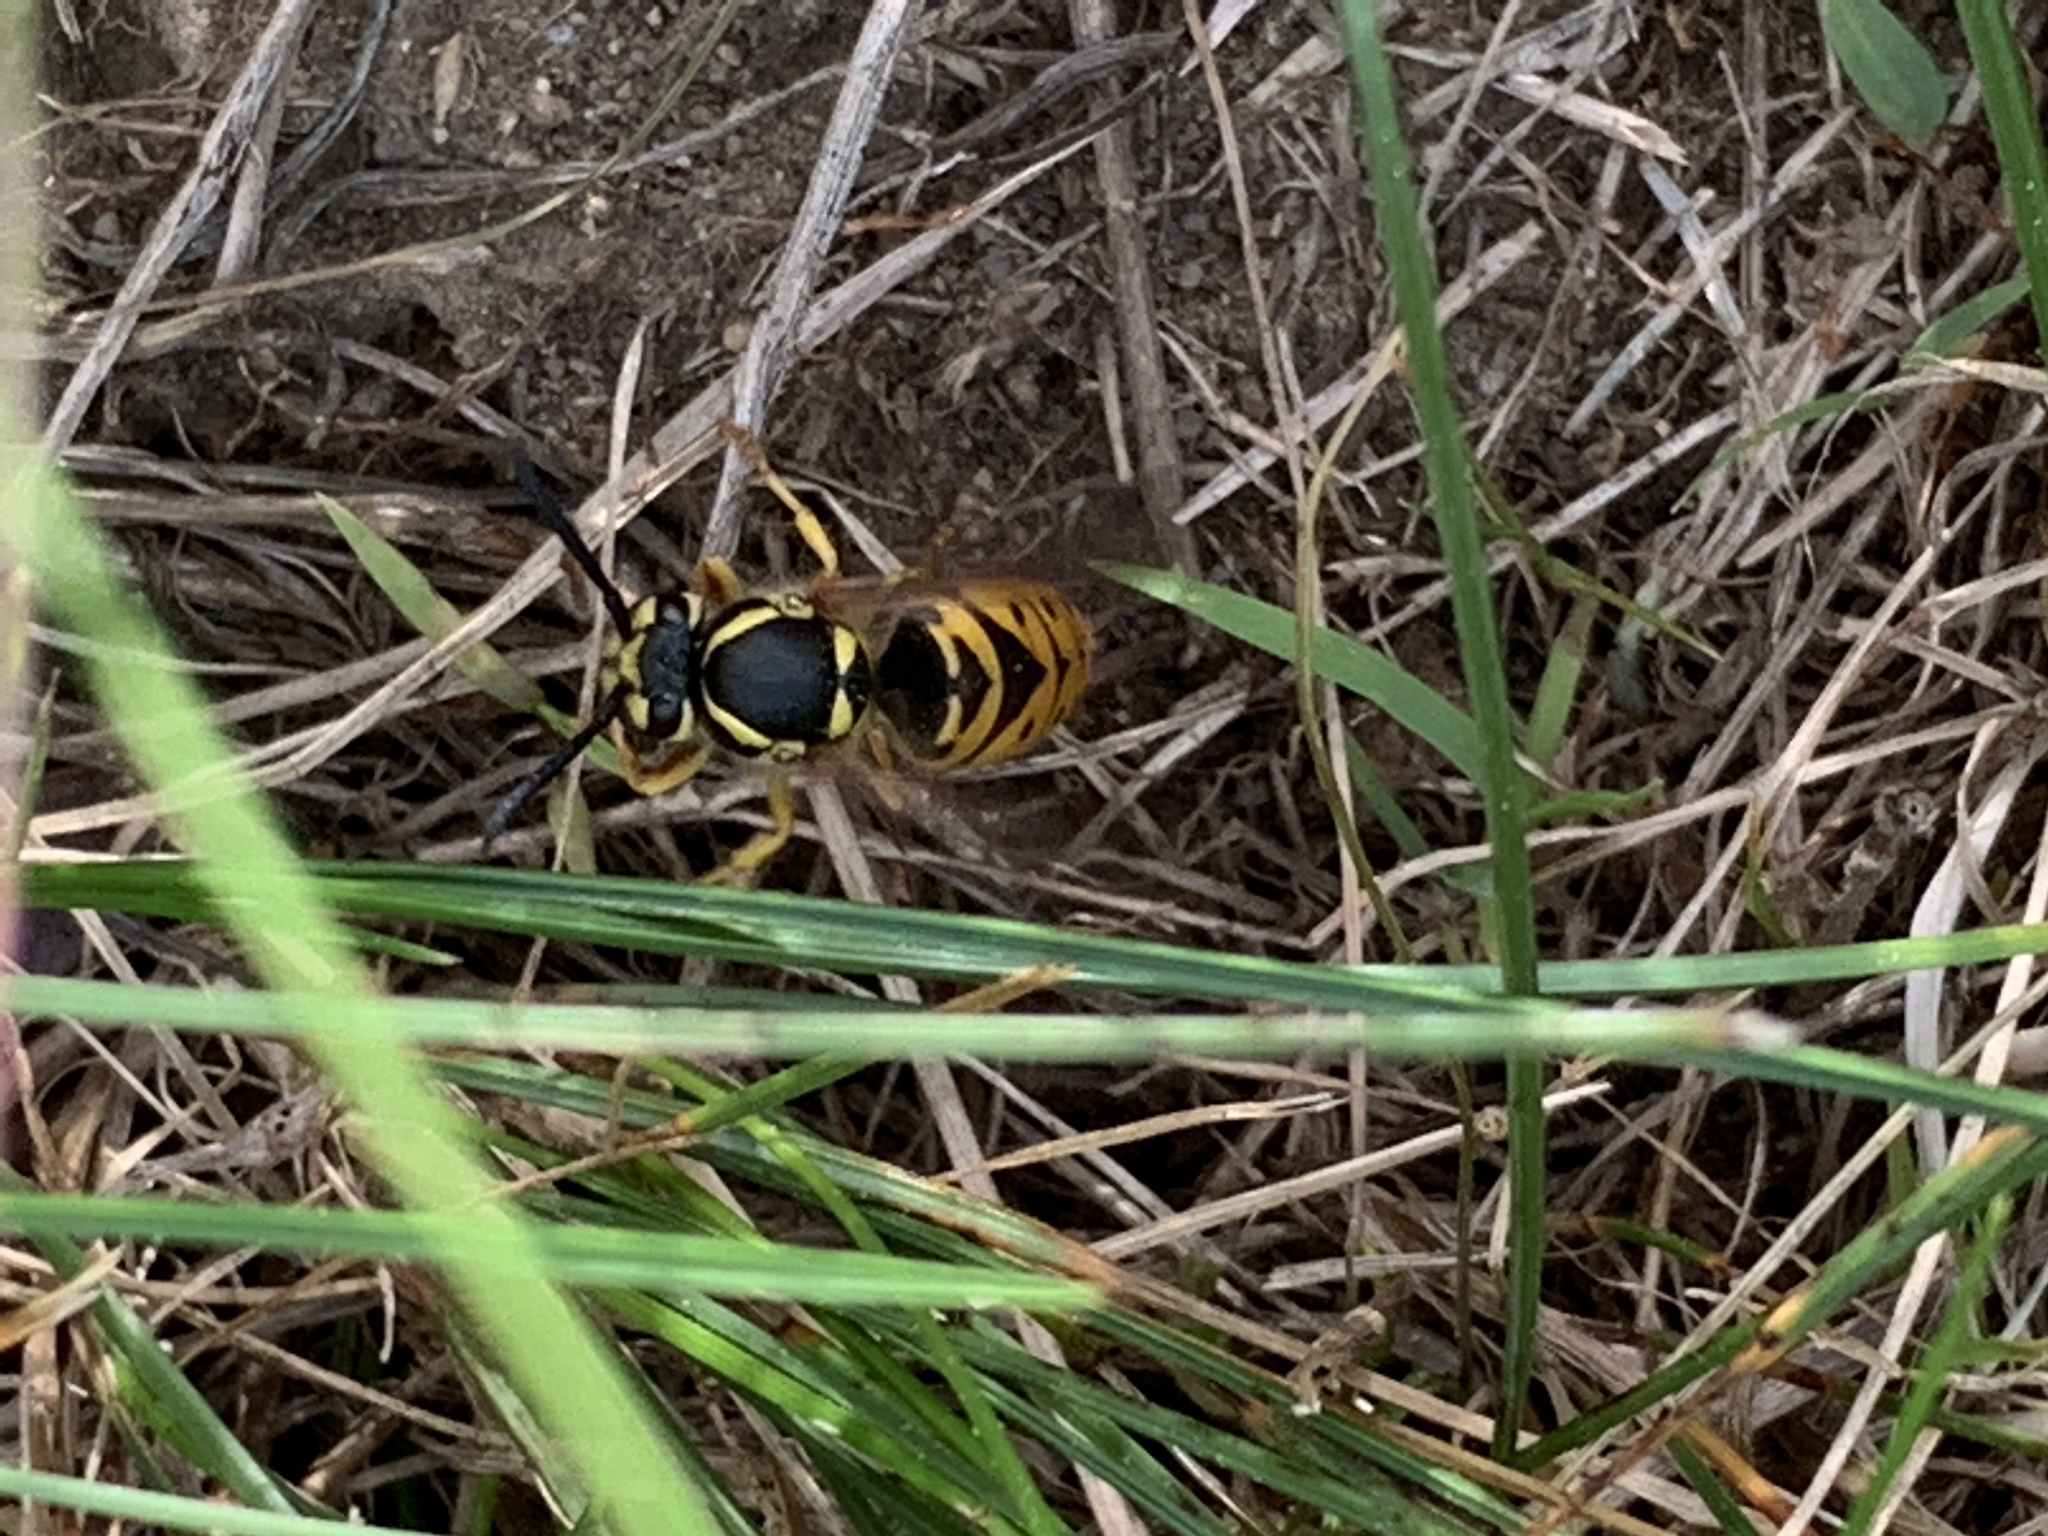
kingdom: Animalia
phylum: Arthropoda
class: Insecta
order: Hymenoptera
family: Vespidae
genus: Vespula
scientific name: Vespula maculifrons
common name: Eastern yellowjacket
